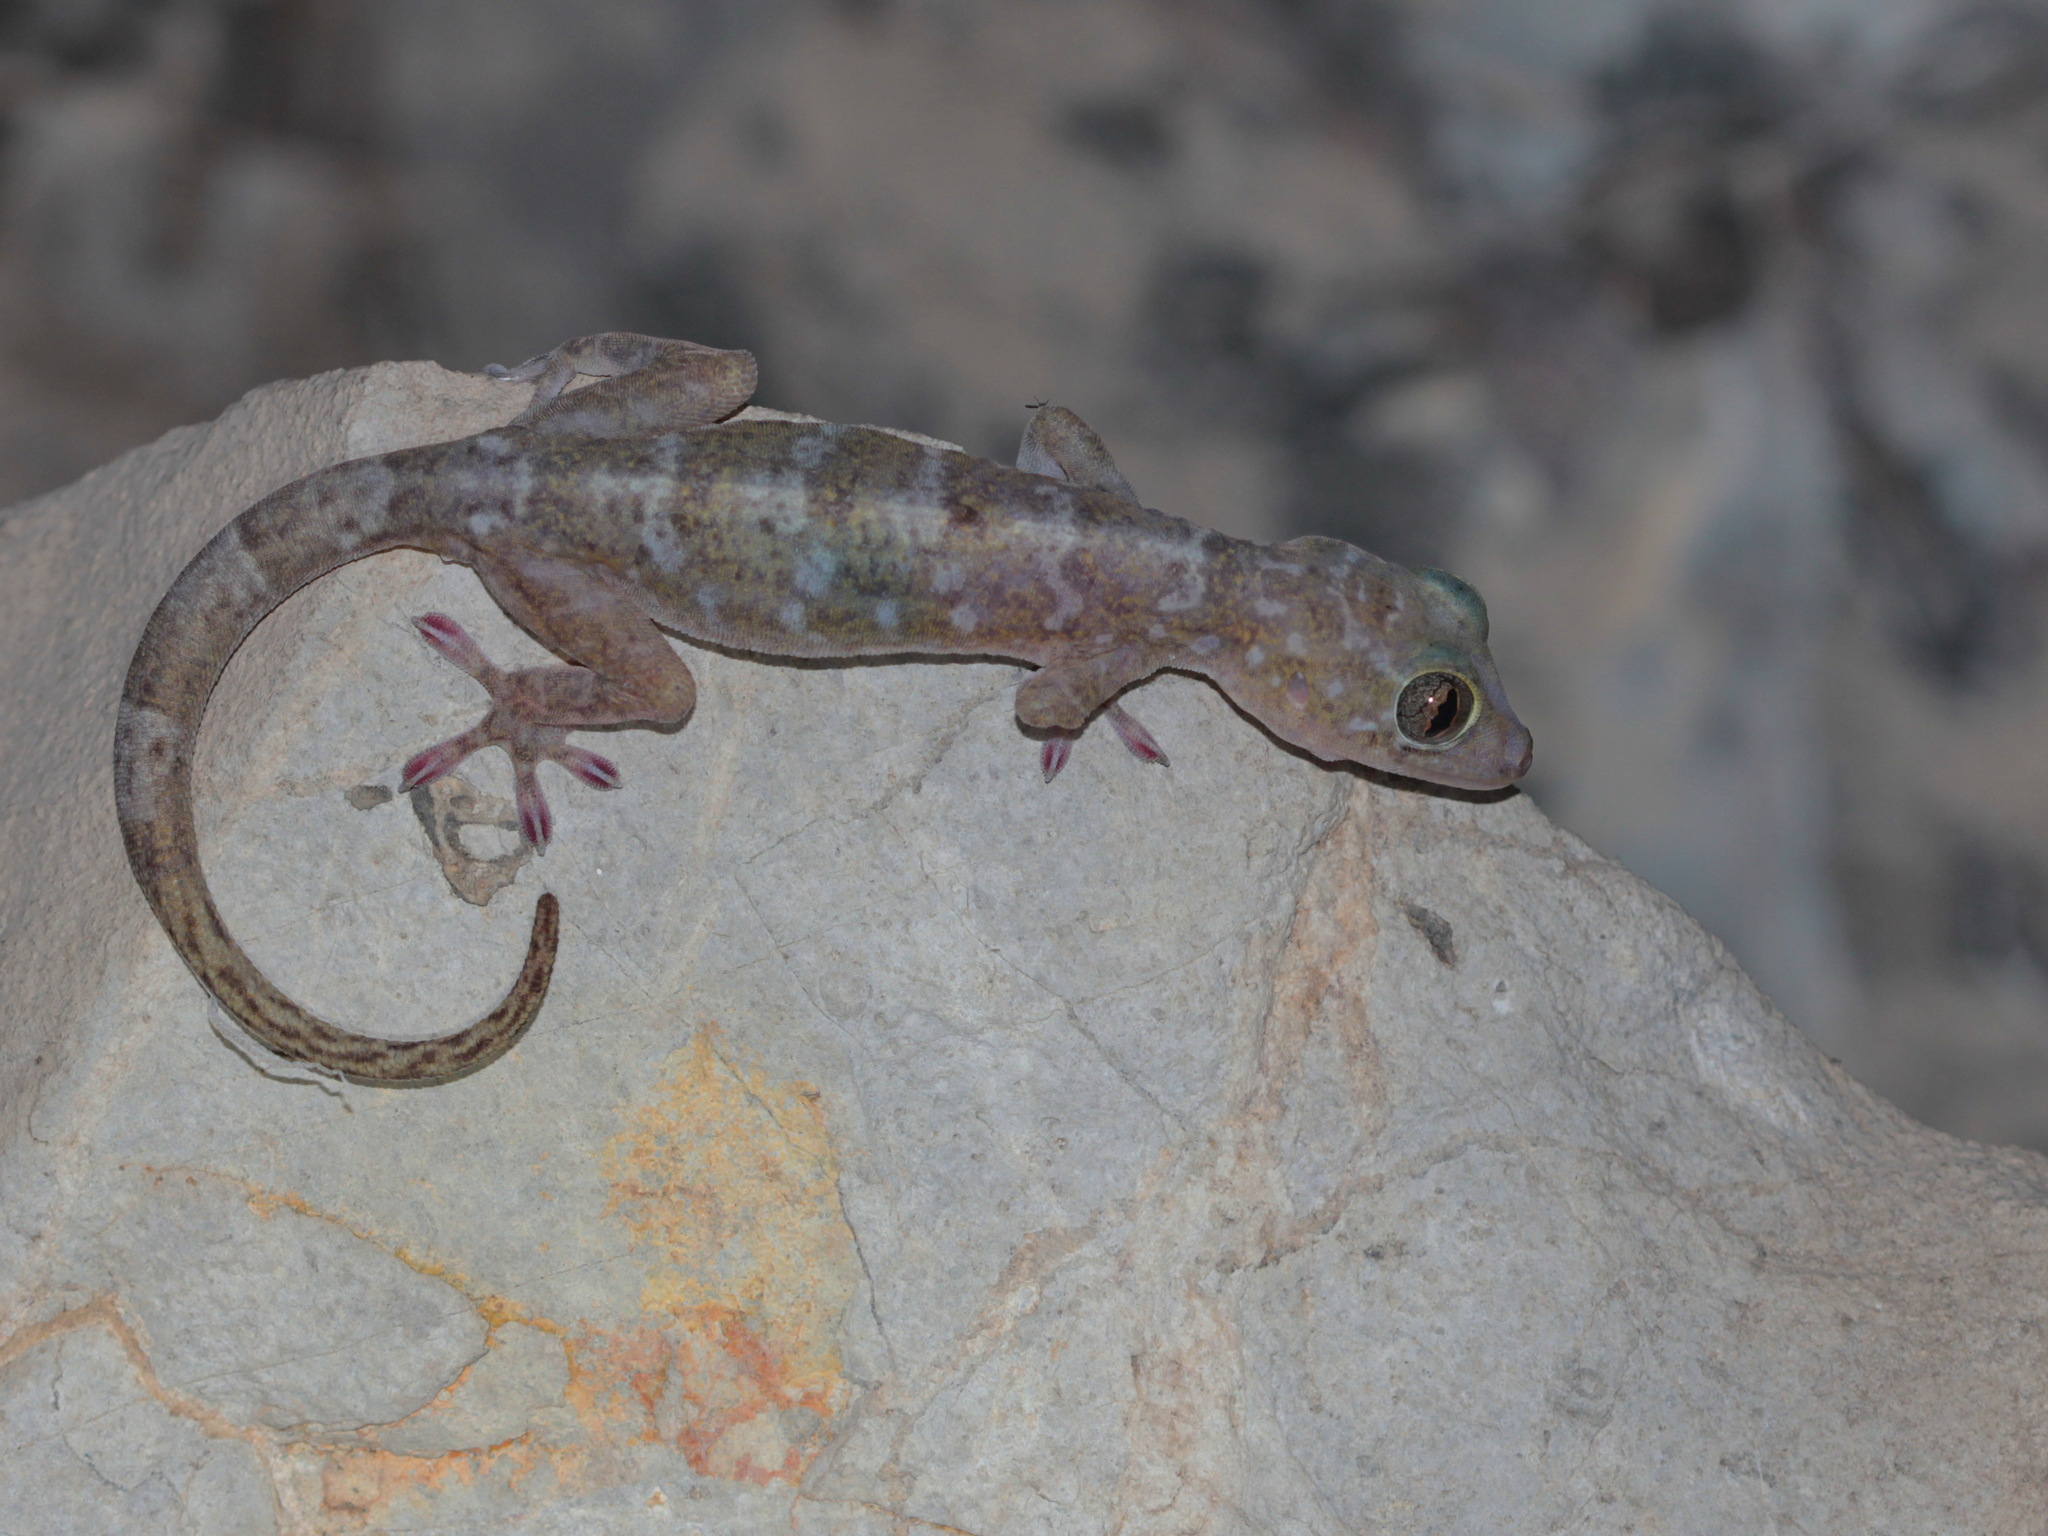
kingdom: Animalia
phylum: Chordata
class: Squamata
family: Gekkonidae
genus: Gekko
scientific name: Gekko lauhachindai
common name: Lauhachinda’s cave gecko
